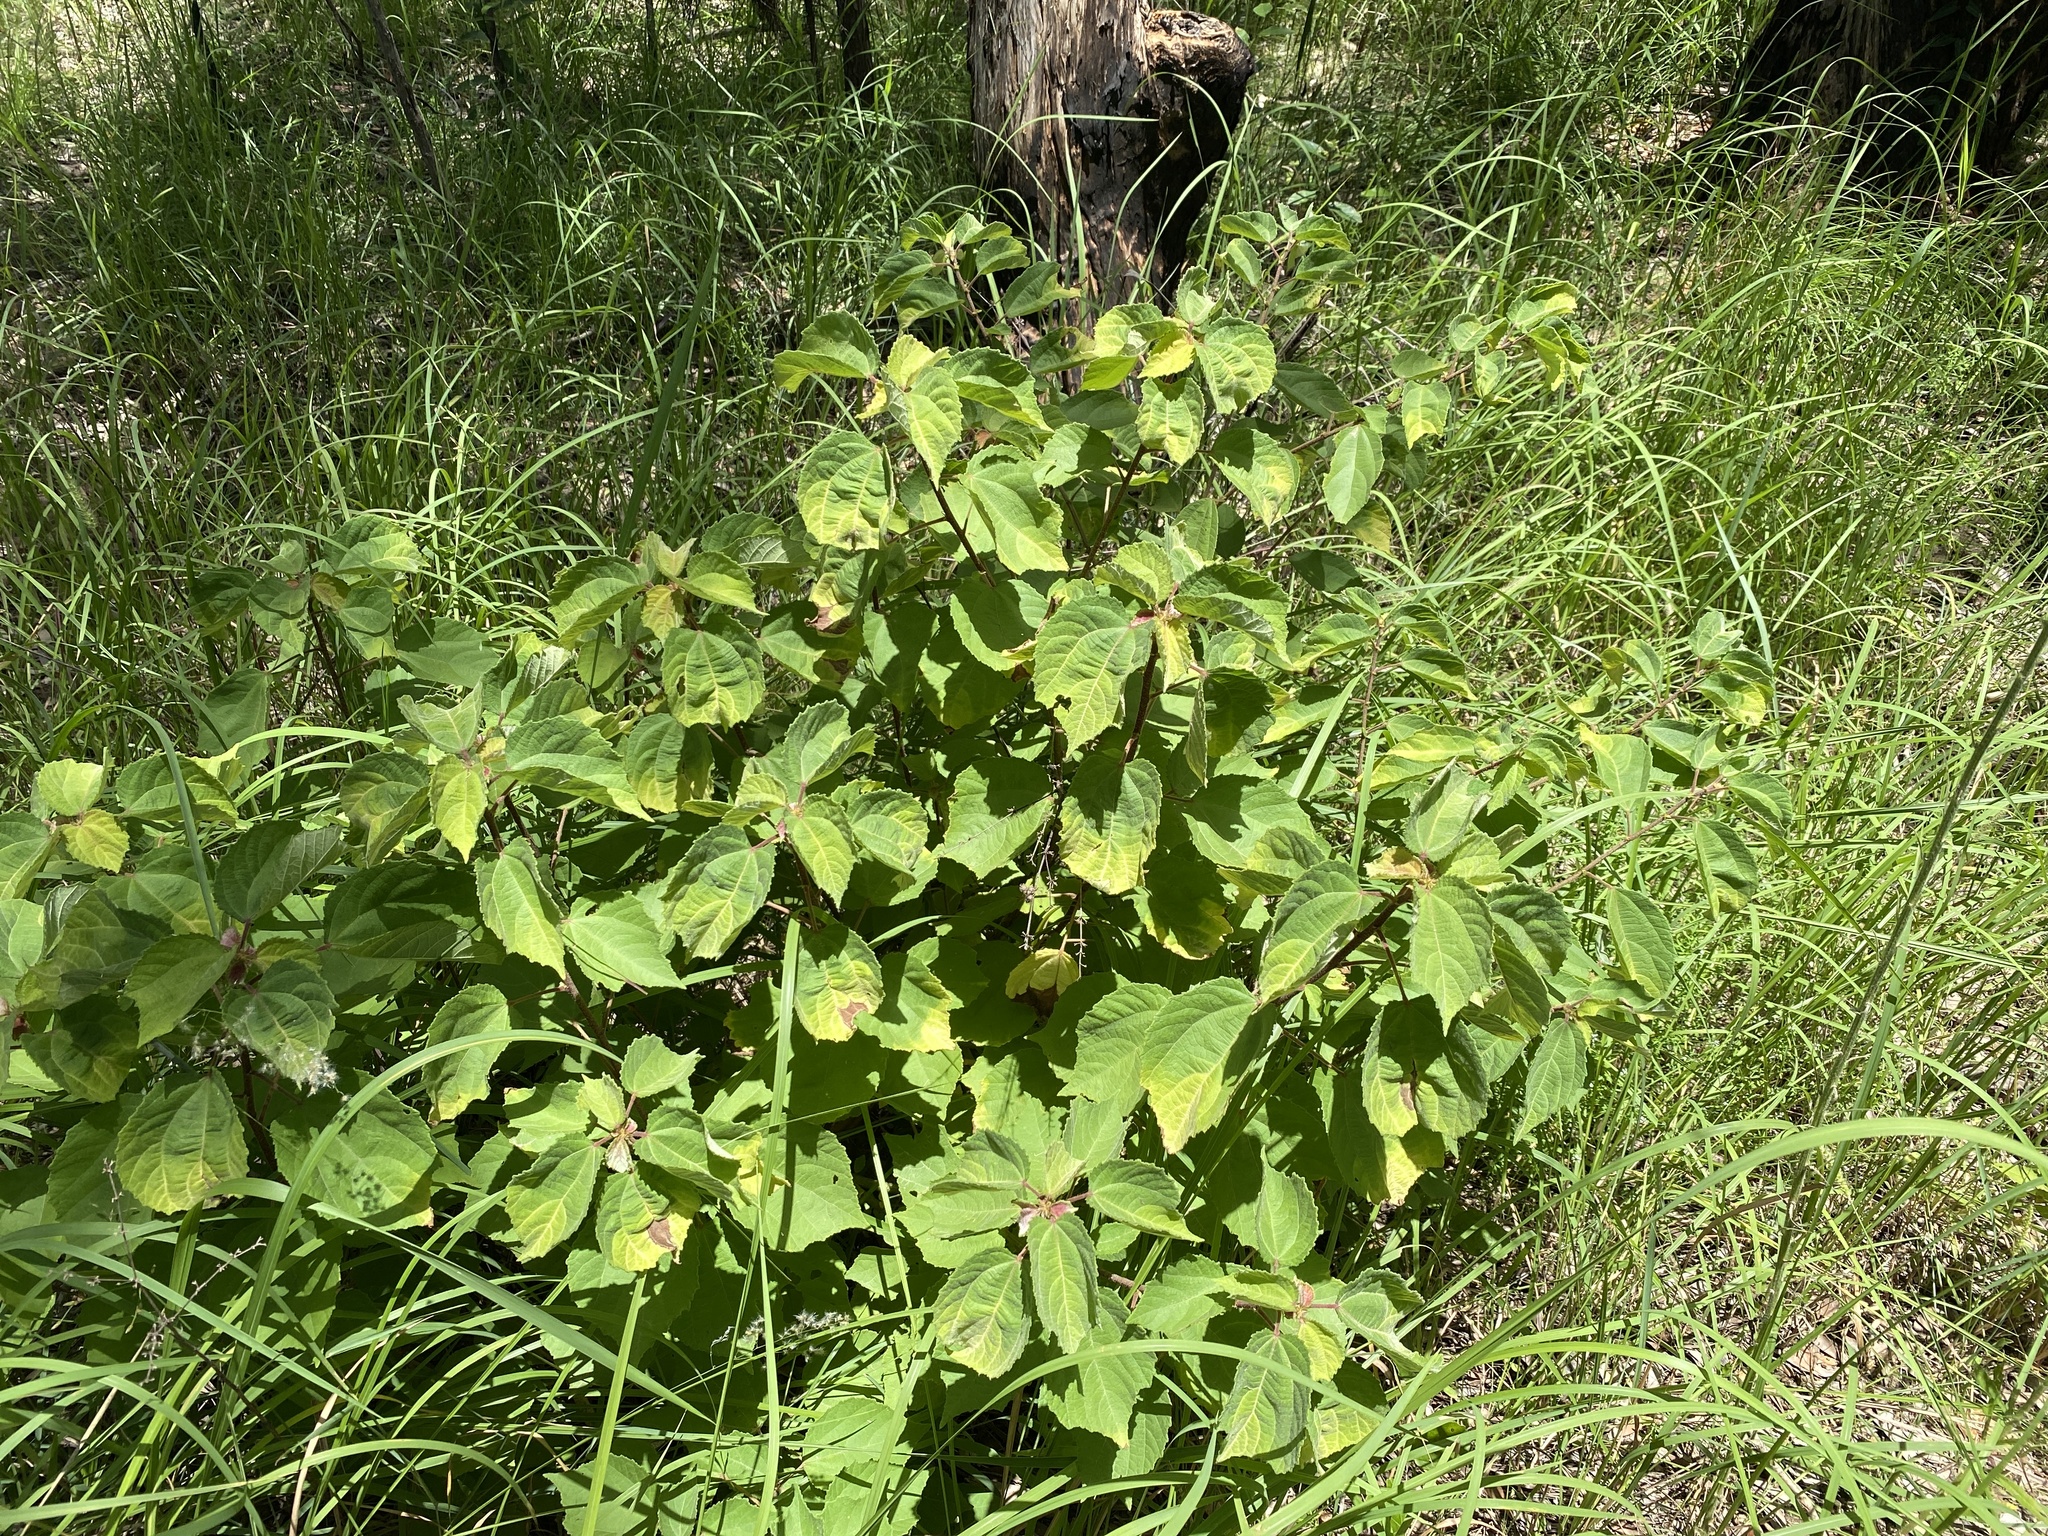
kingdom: Plantae
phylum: Tracheophyta
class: Magnoliopsida
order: Malvales
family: Malvaceae
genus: Triumfetta
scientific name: Triumfetta rhomboidea
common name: Diamond burbark
